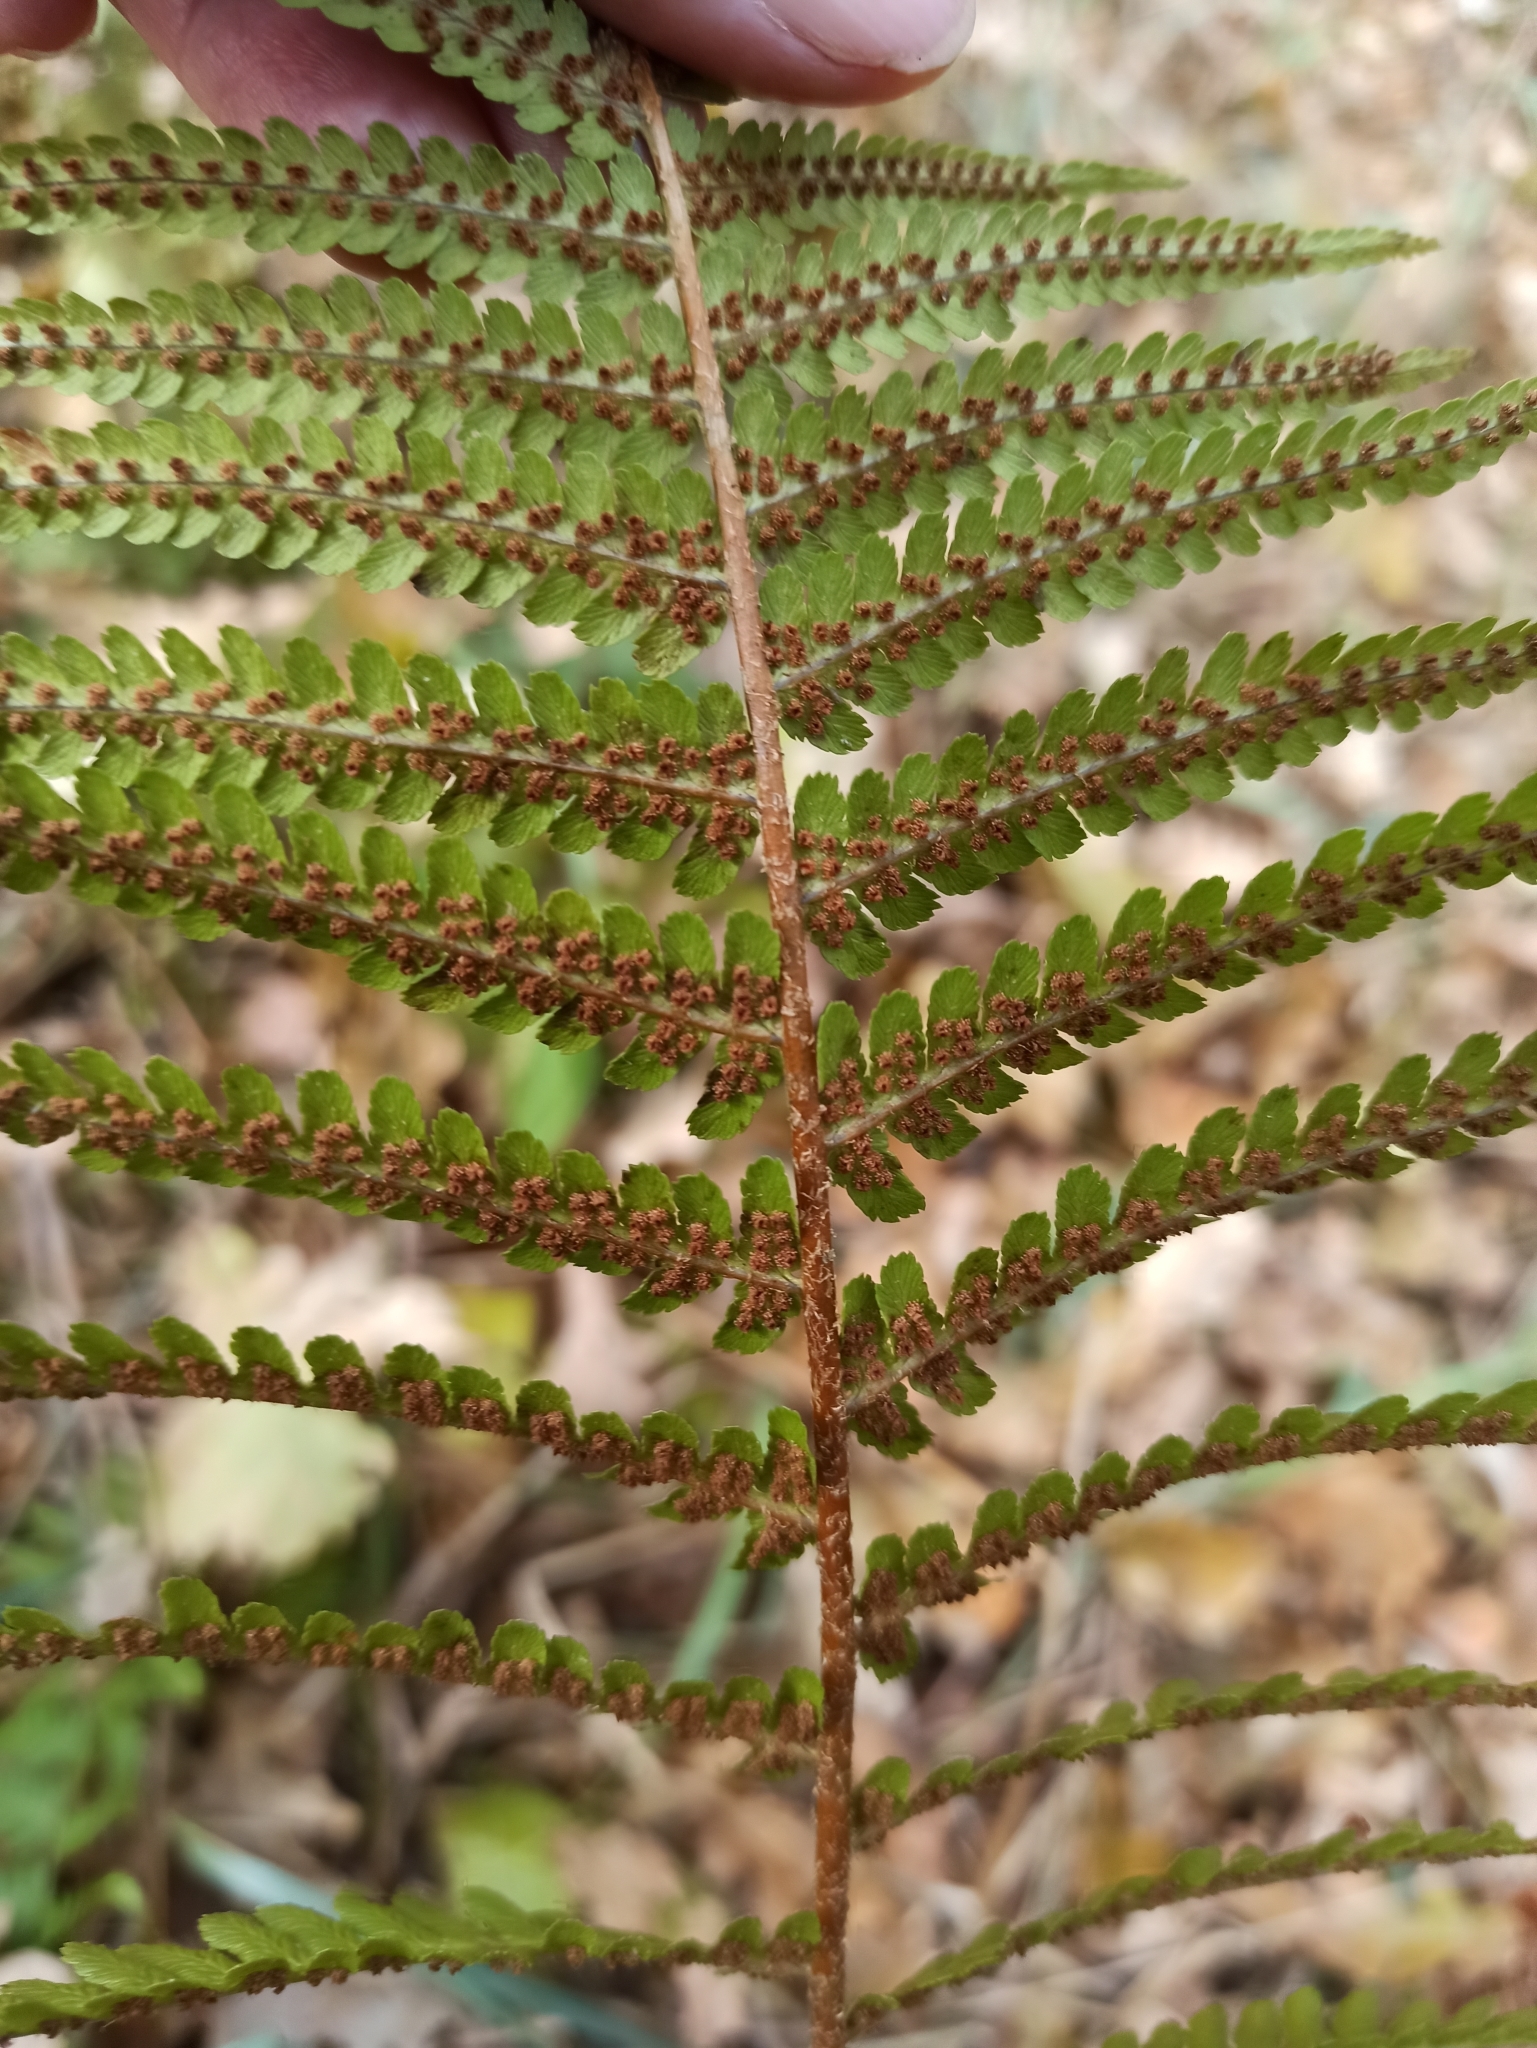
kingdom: Plantae
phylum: Tracheophyta
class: Polypodiopsida
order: Polypodiales
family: Dryopteridaceae
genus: Dryopteris
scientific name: Dryopteris filix-mas
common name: Male fern
